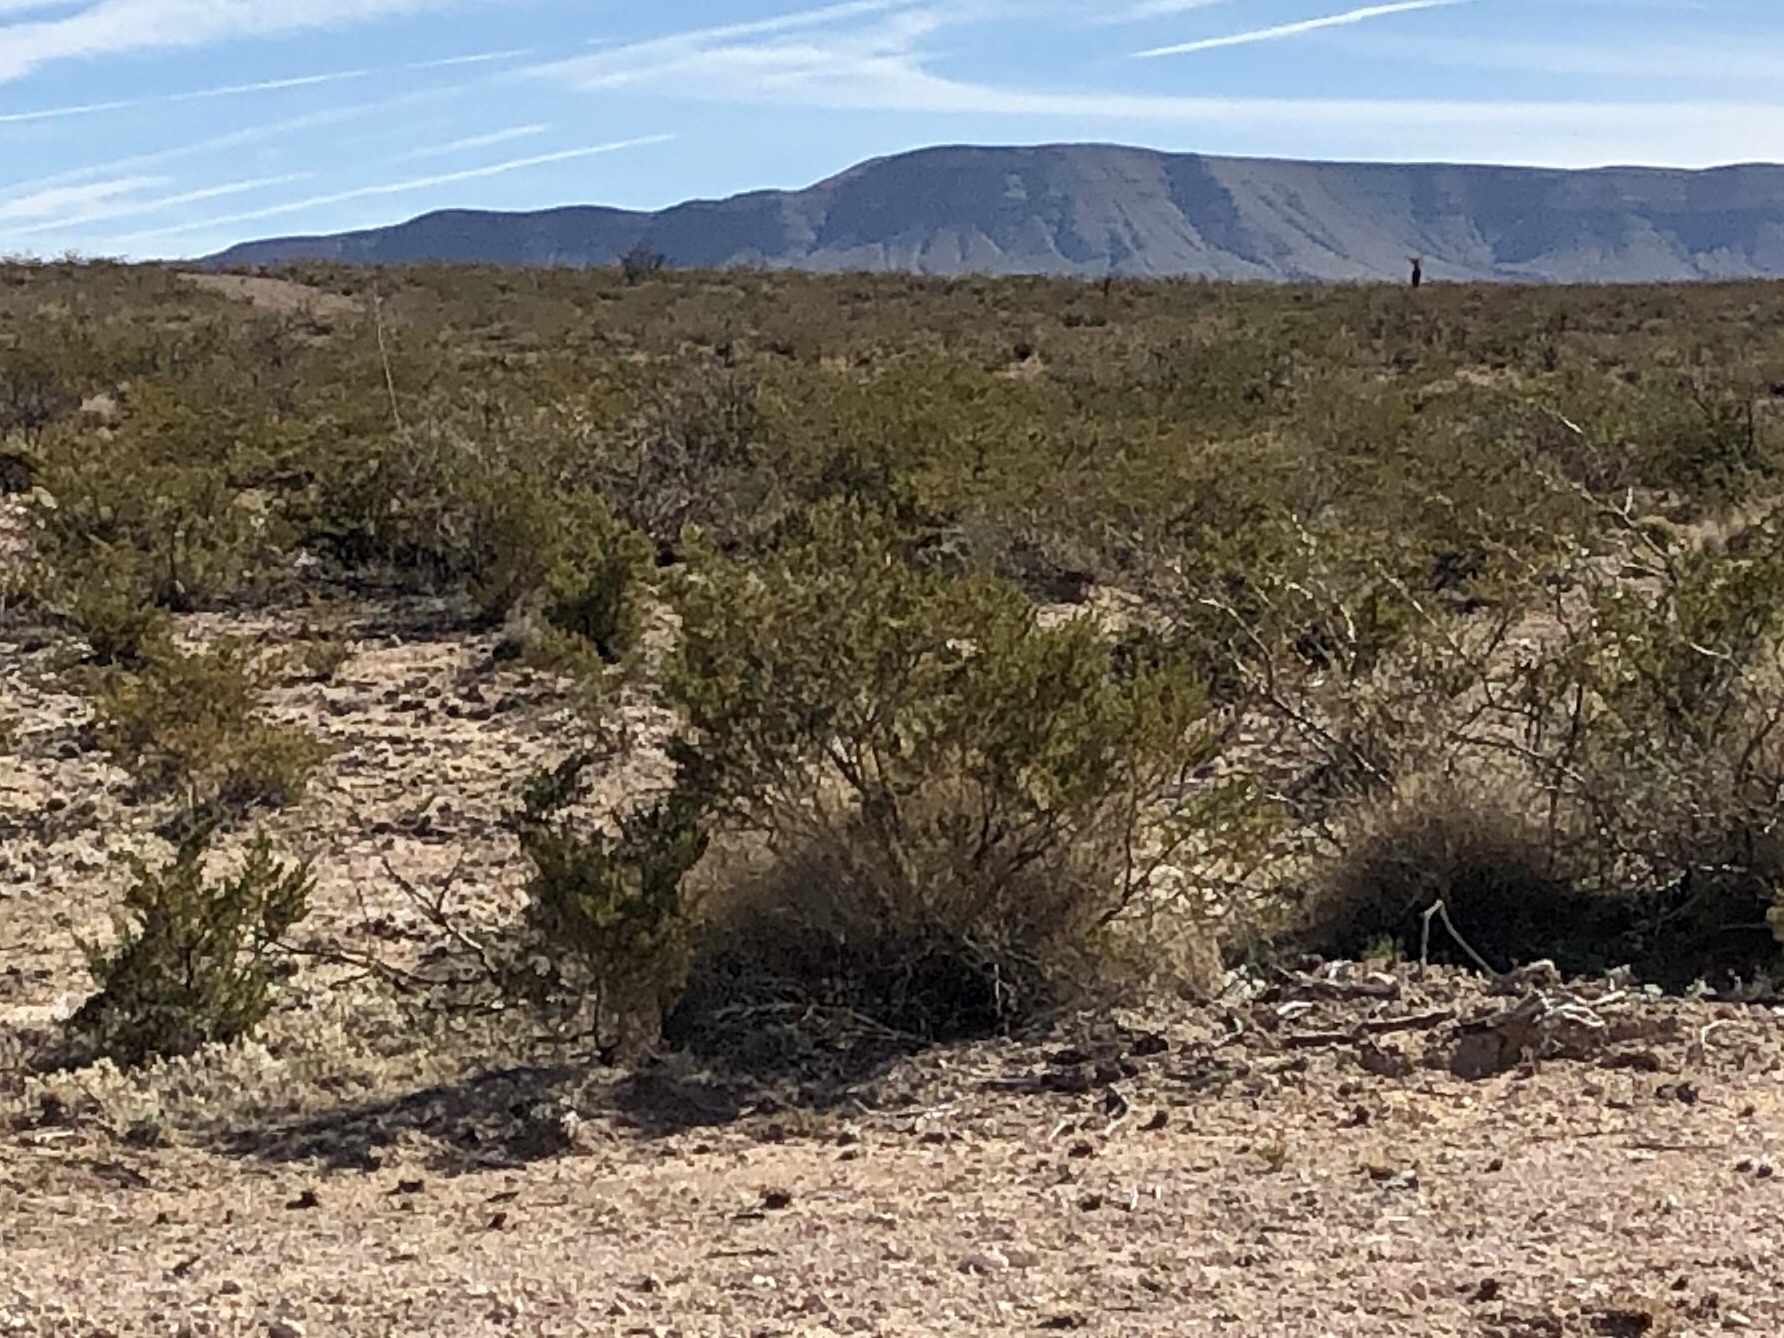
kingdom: Plantae
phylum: Tracheophyta
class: Magnoliopsida
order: Zygophyllales
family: Zygophyllaceae
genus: Larrea
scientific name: Larrea tridentata
